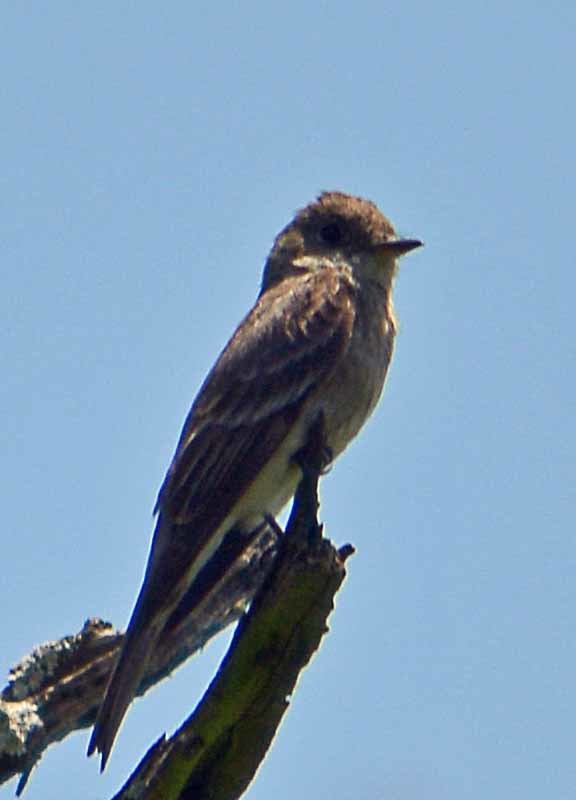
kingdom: Animalia
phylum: Chordata
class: Aves
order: Passeriformes
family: Tyrannidae
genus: Contopus
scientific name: Contopus sordidulus
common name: Western wood-pewee
